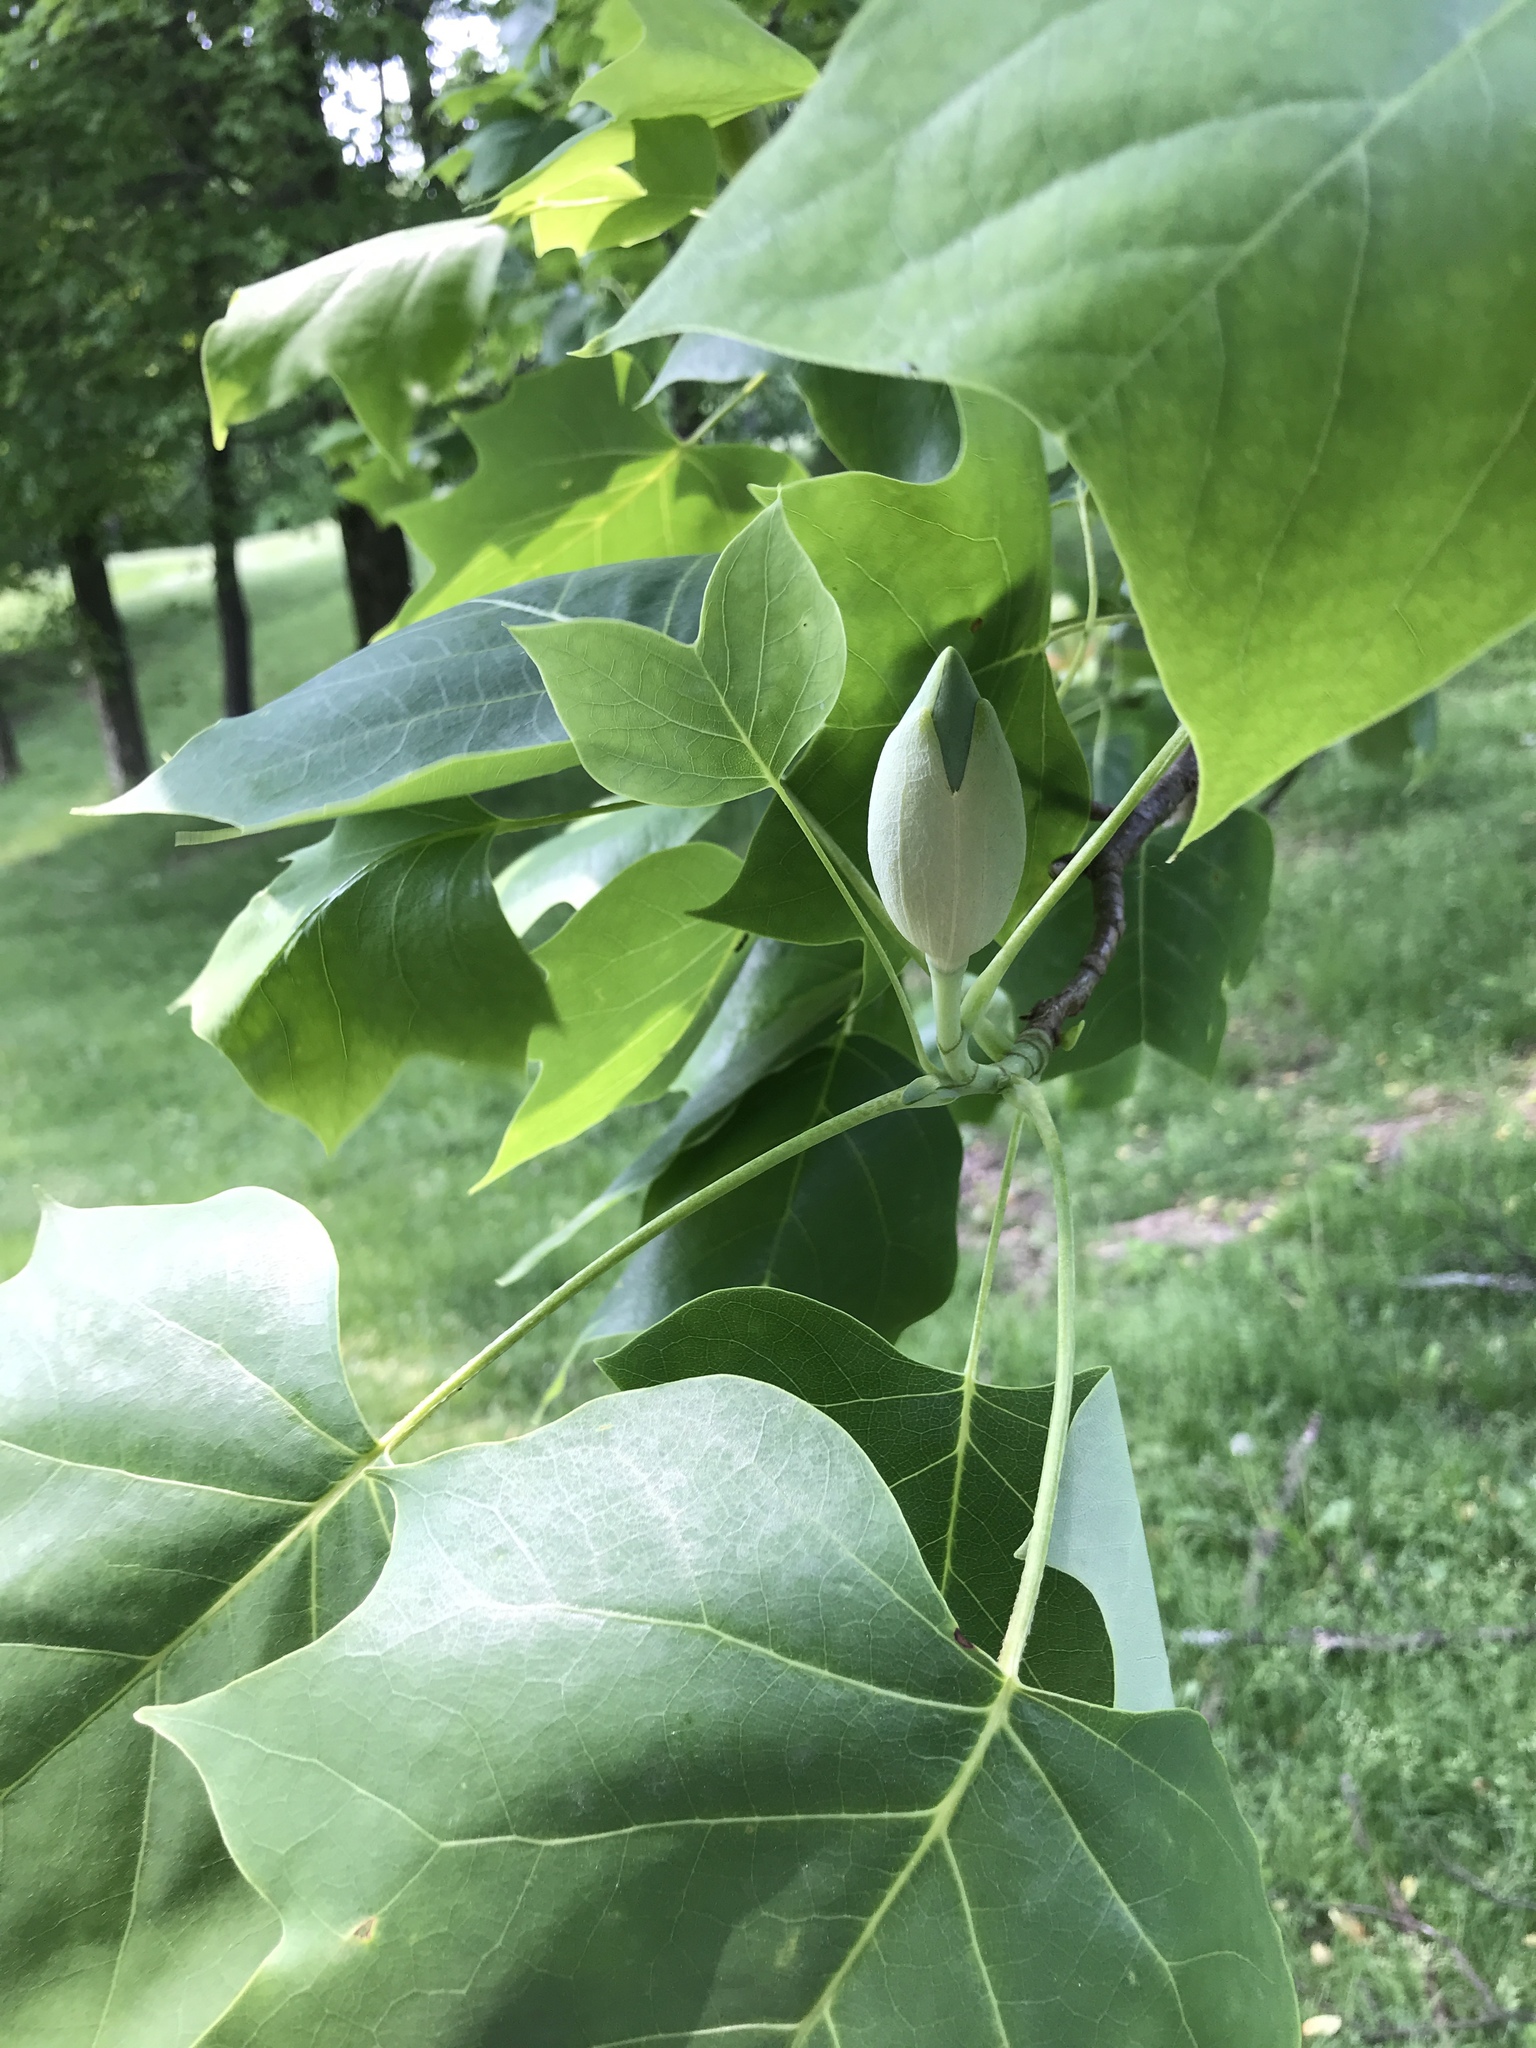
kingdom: Plantae
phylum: Tracheophyta
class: Magnoliopsida
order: Magnoliales
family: Magnoliaceae
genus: Liriodendron
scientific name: Liriodendron tulipifera
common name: Tulip tree
